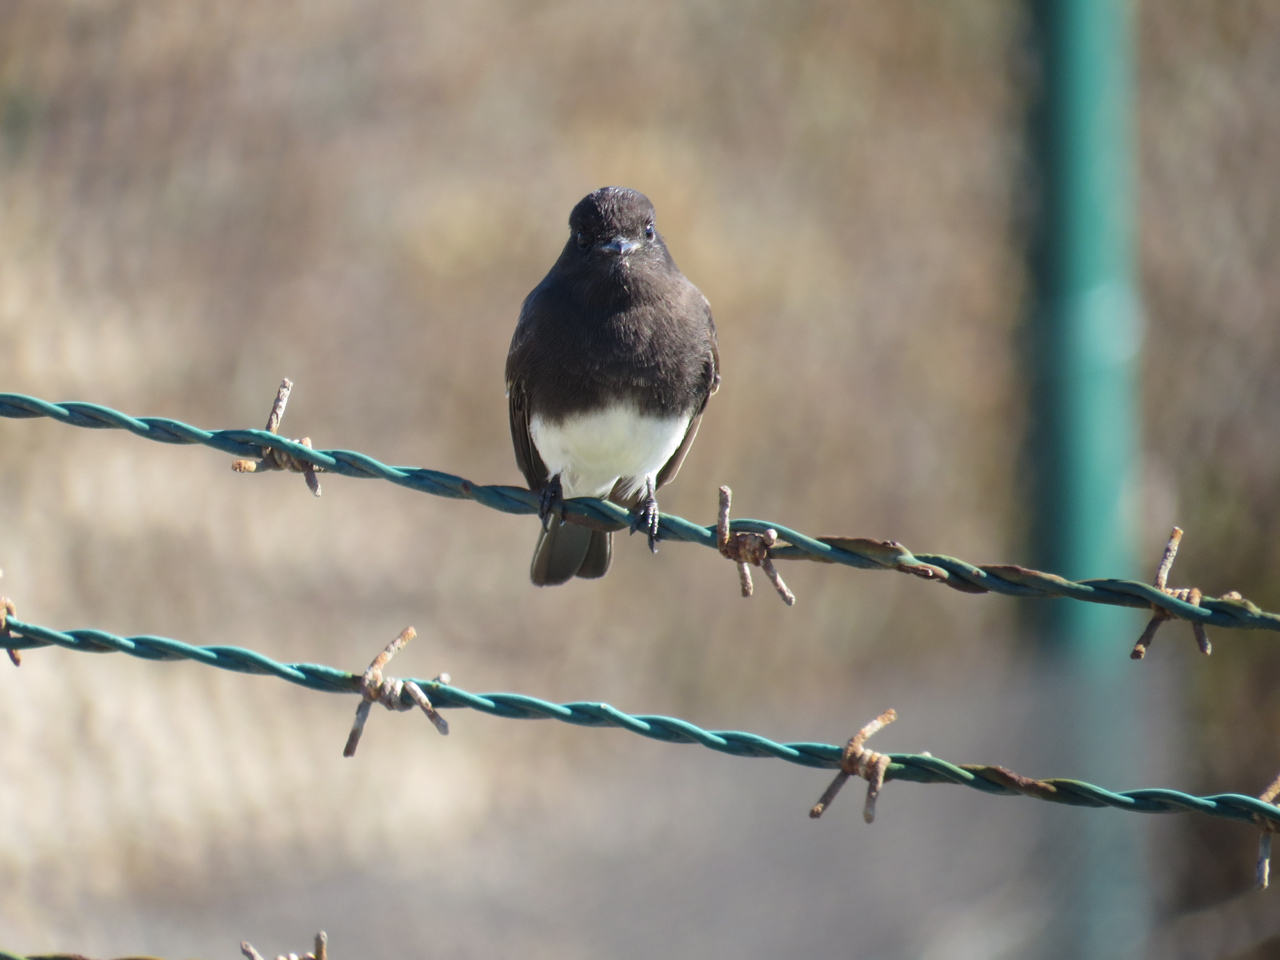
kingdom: Animalia
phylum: Chordata
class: Aves
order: Passeriformes
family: Tyrannidae
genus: Sayornis
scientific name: Sayornis nigricans
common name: Black phoebe
